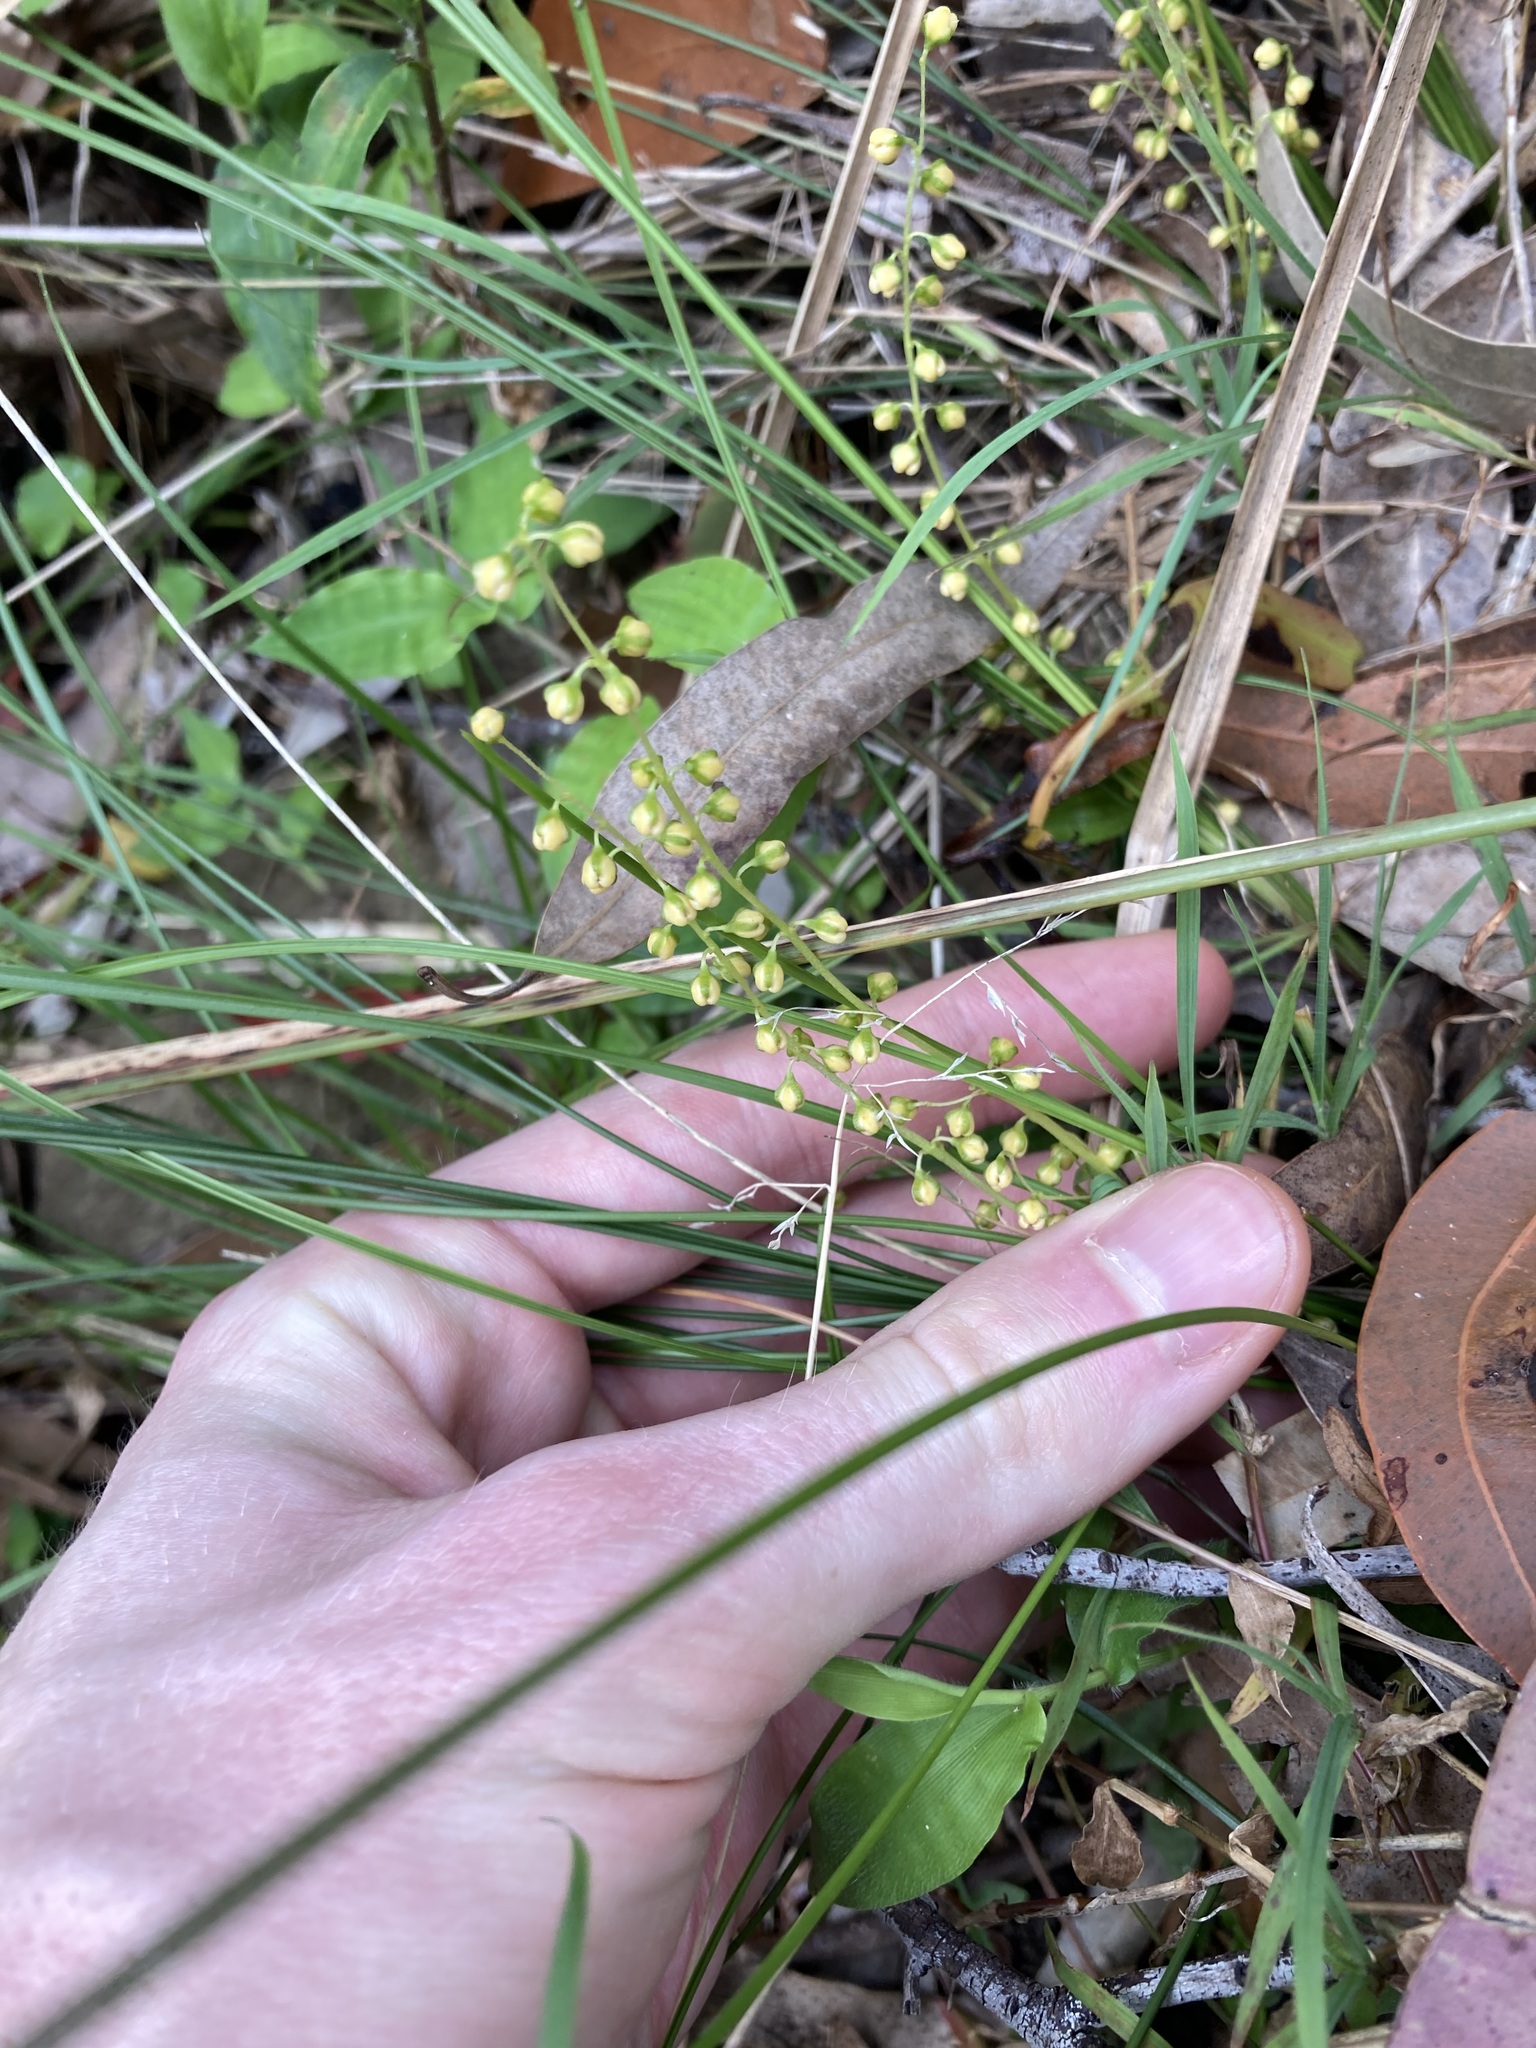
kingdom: Plantae
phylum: Tracheophyta
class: Liliopsida
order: Asparagales
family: Asparagaceae
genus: Lomandra
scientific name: Lomandra filiformis
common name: Wattle mat-rush
